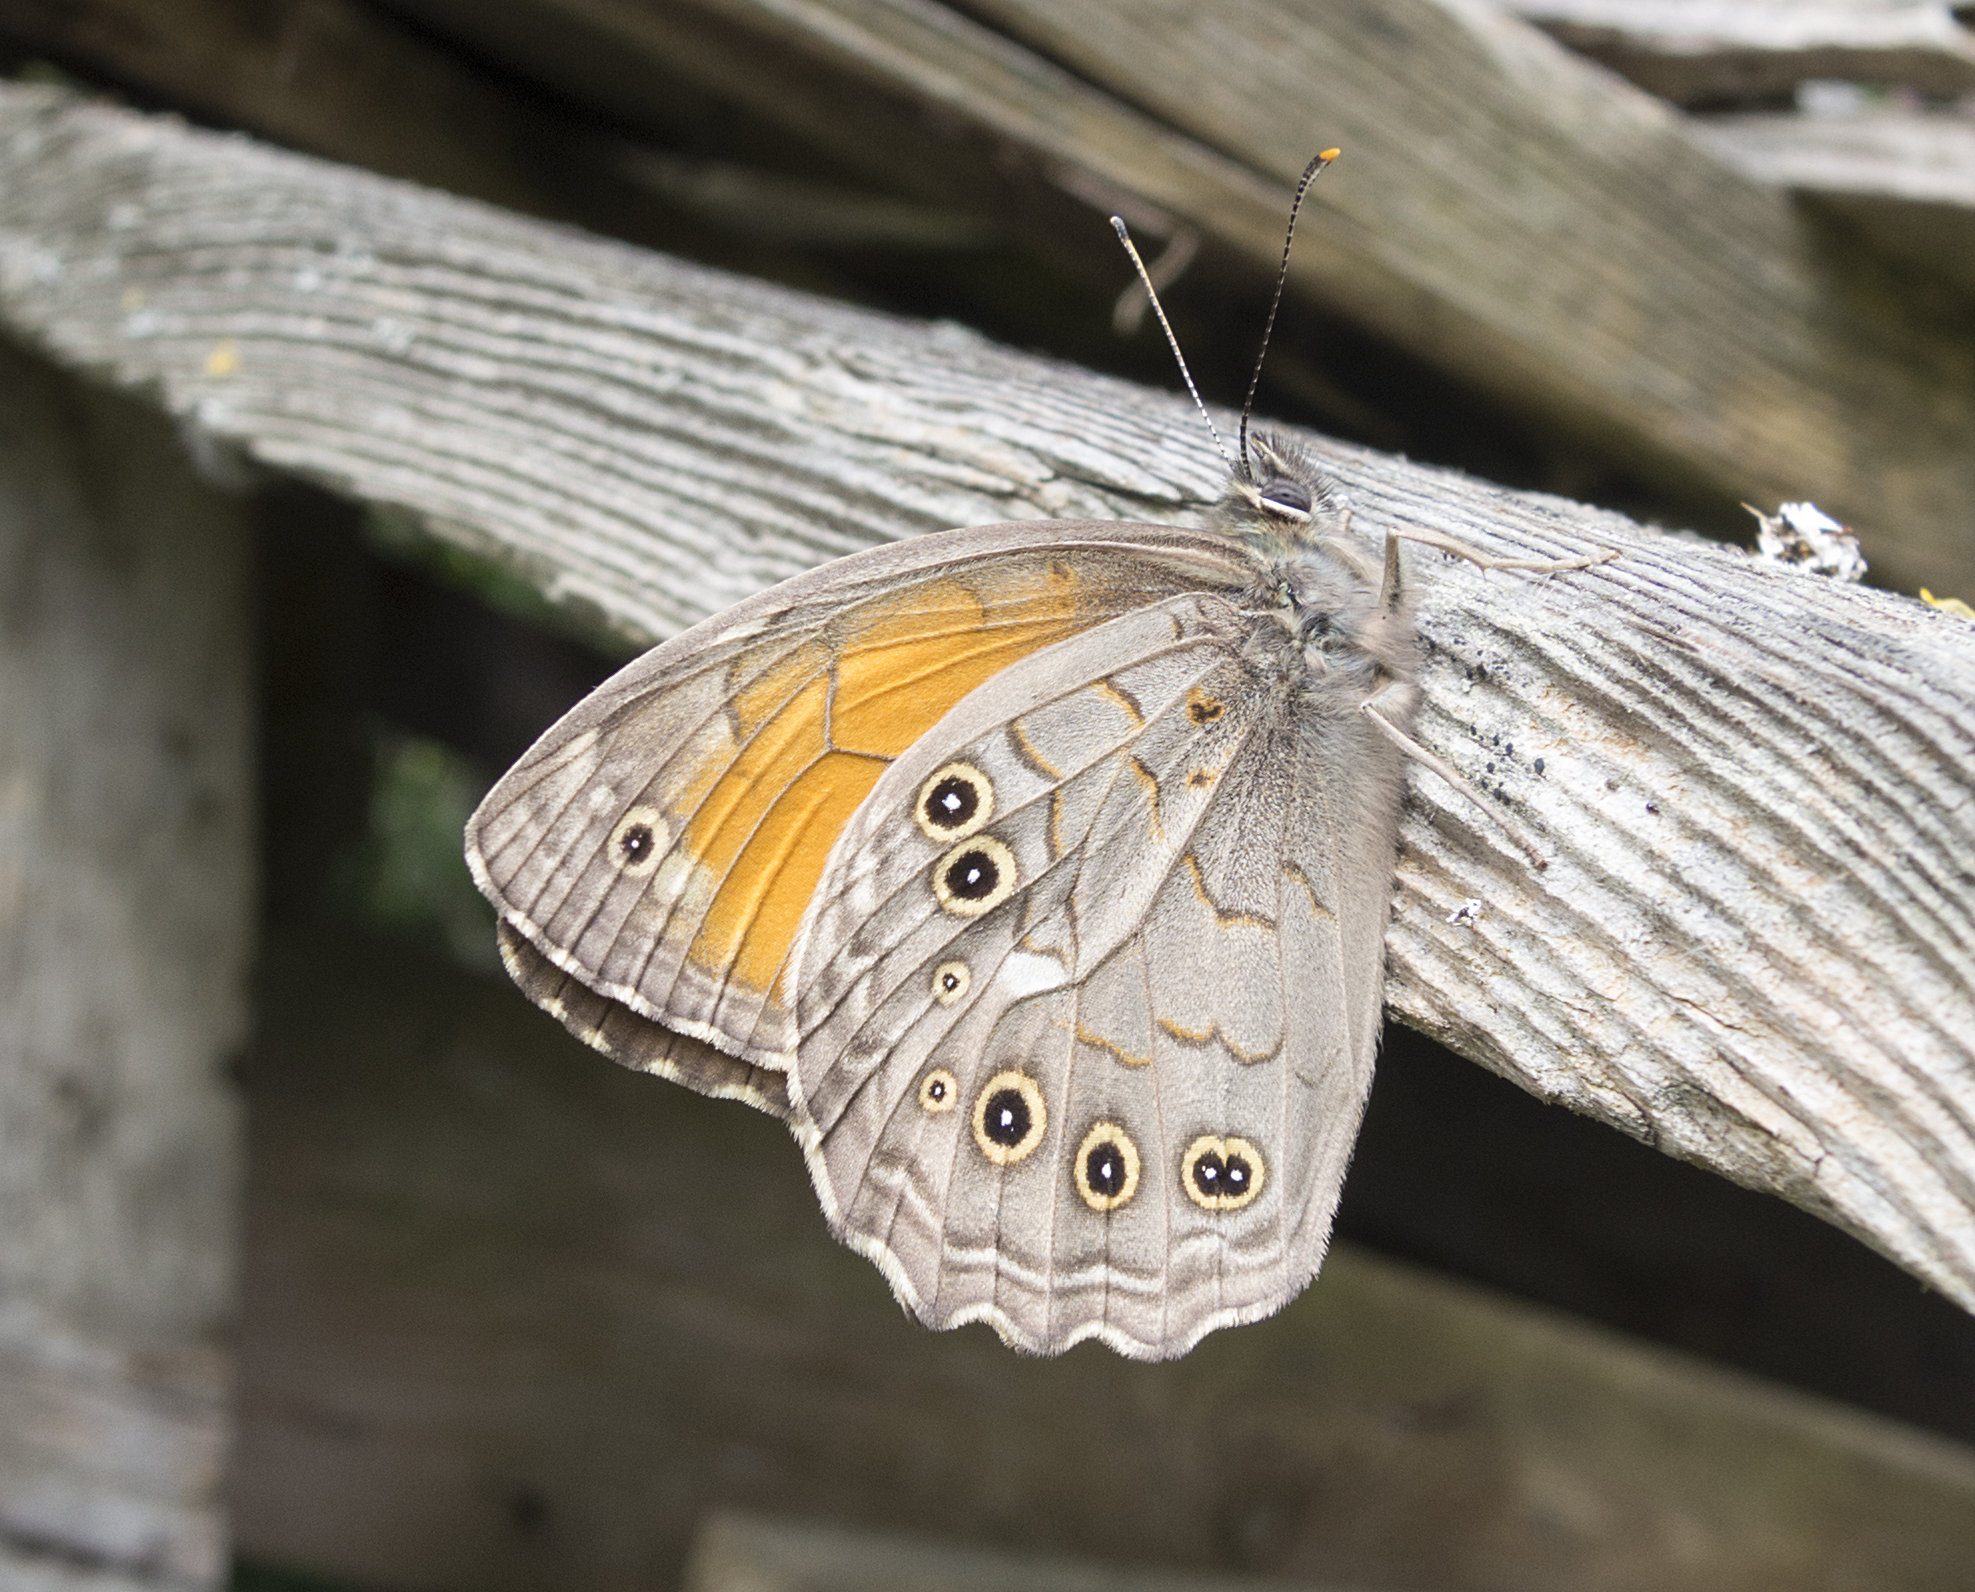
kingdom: Animalia
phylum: Arthropoda
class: Insecta
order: Lepidoptera
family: Nymphalidae
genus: Kirinia
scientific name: Kirinia roxelana
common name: Lattice brown
